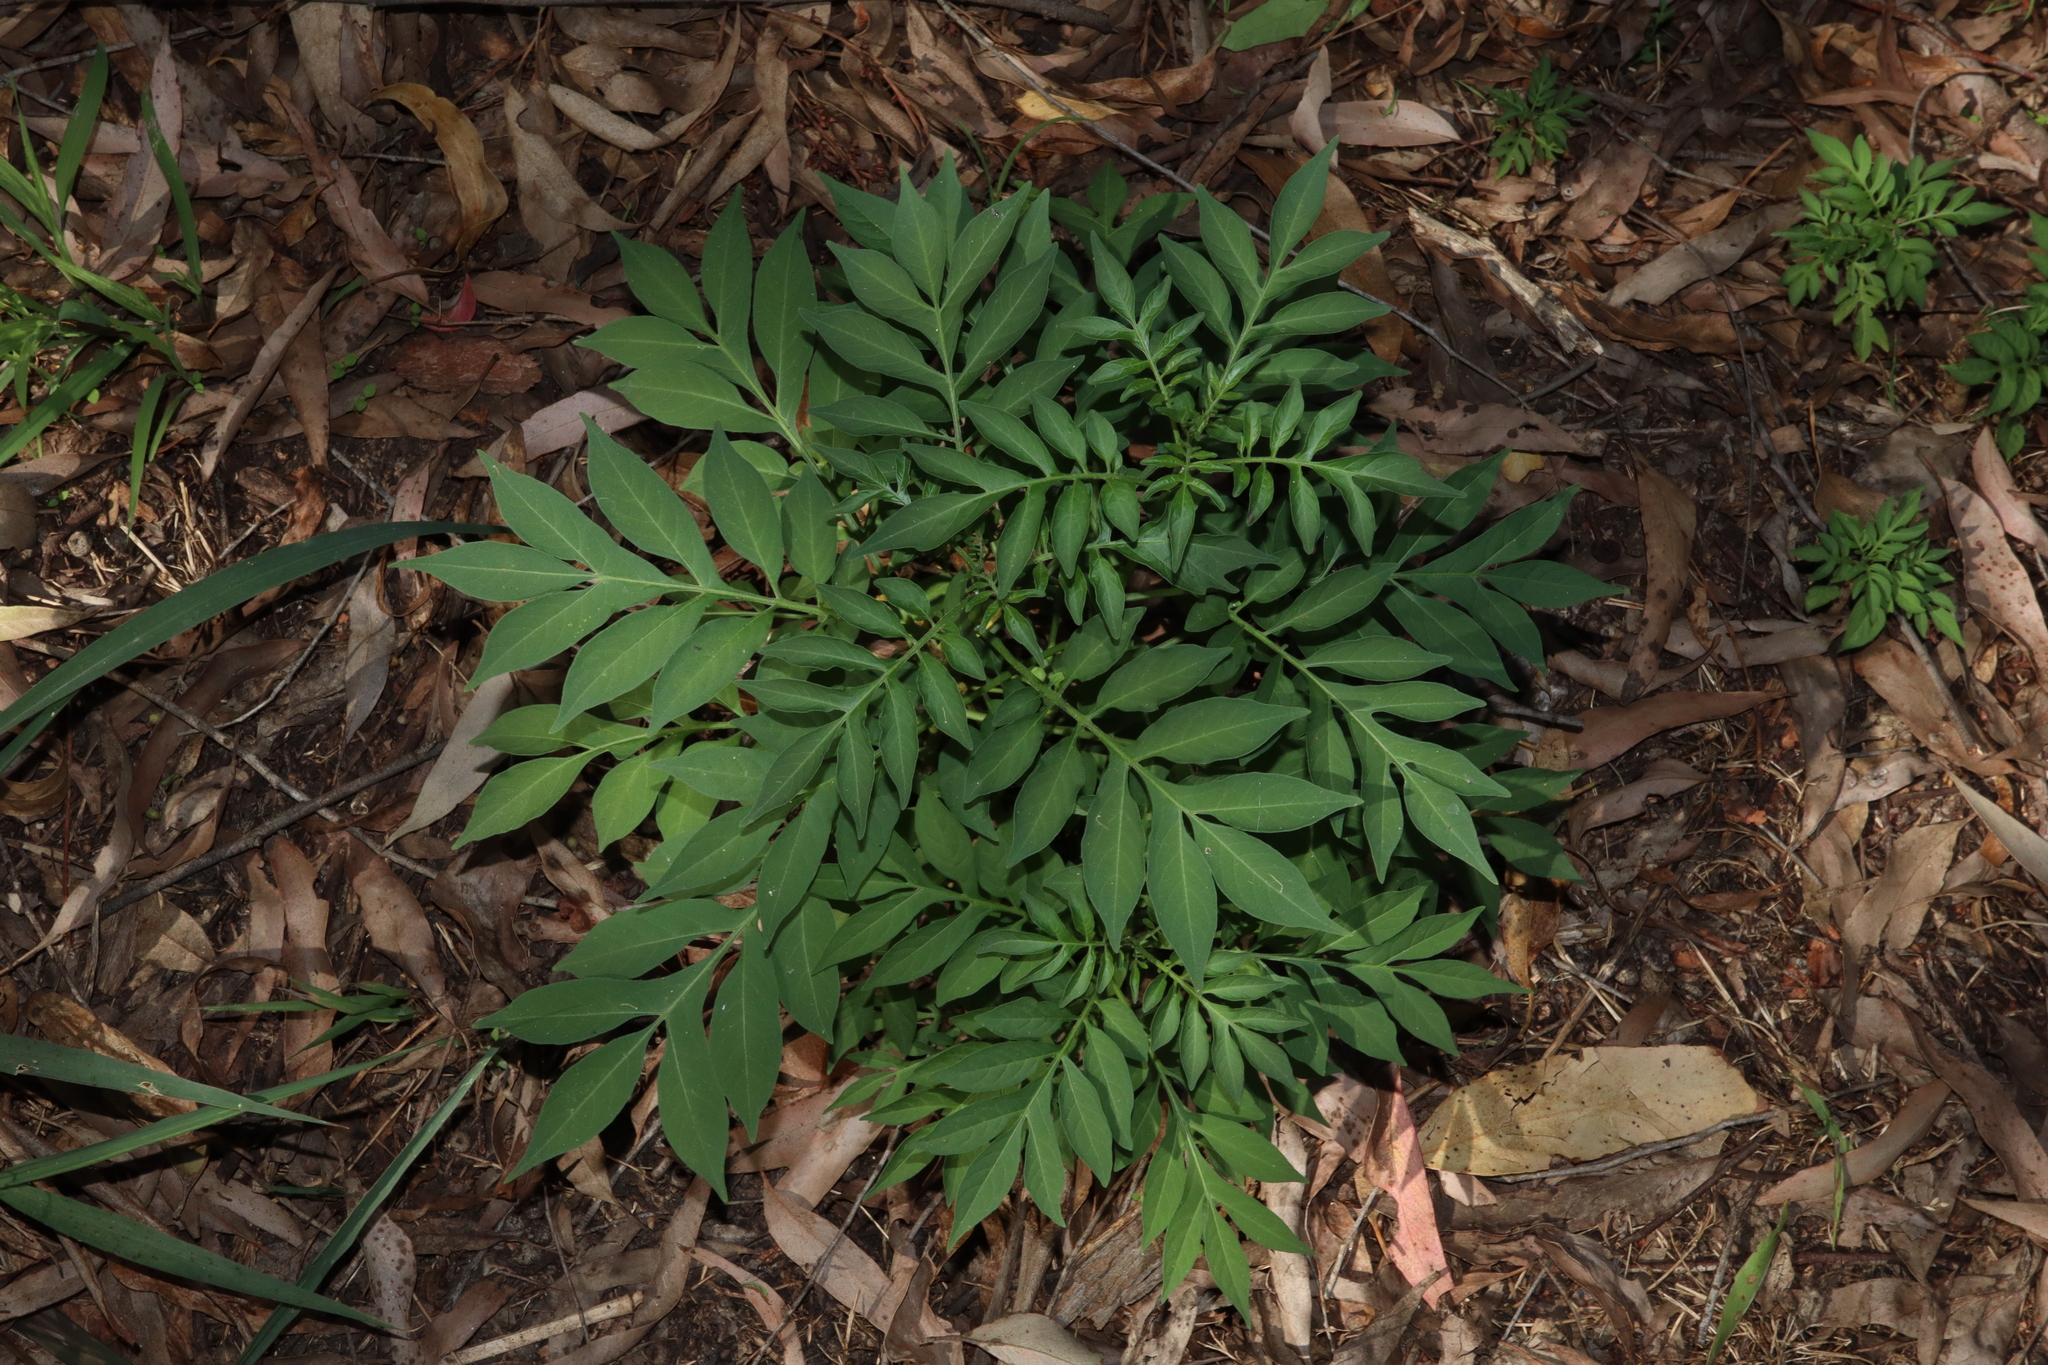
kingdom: Plantae
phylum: Tracheophyta
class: Magnoliopsida
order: Solanales
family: Solanaceae
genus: Solanum
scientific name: Solanum seaforthianum
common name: Brazilian nightshade
